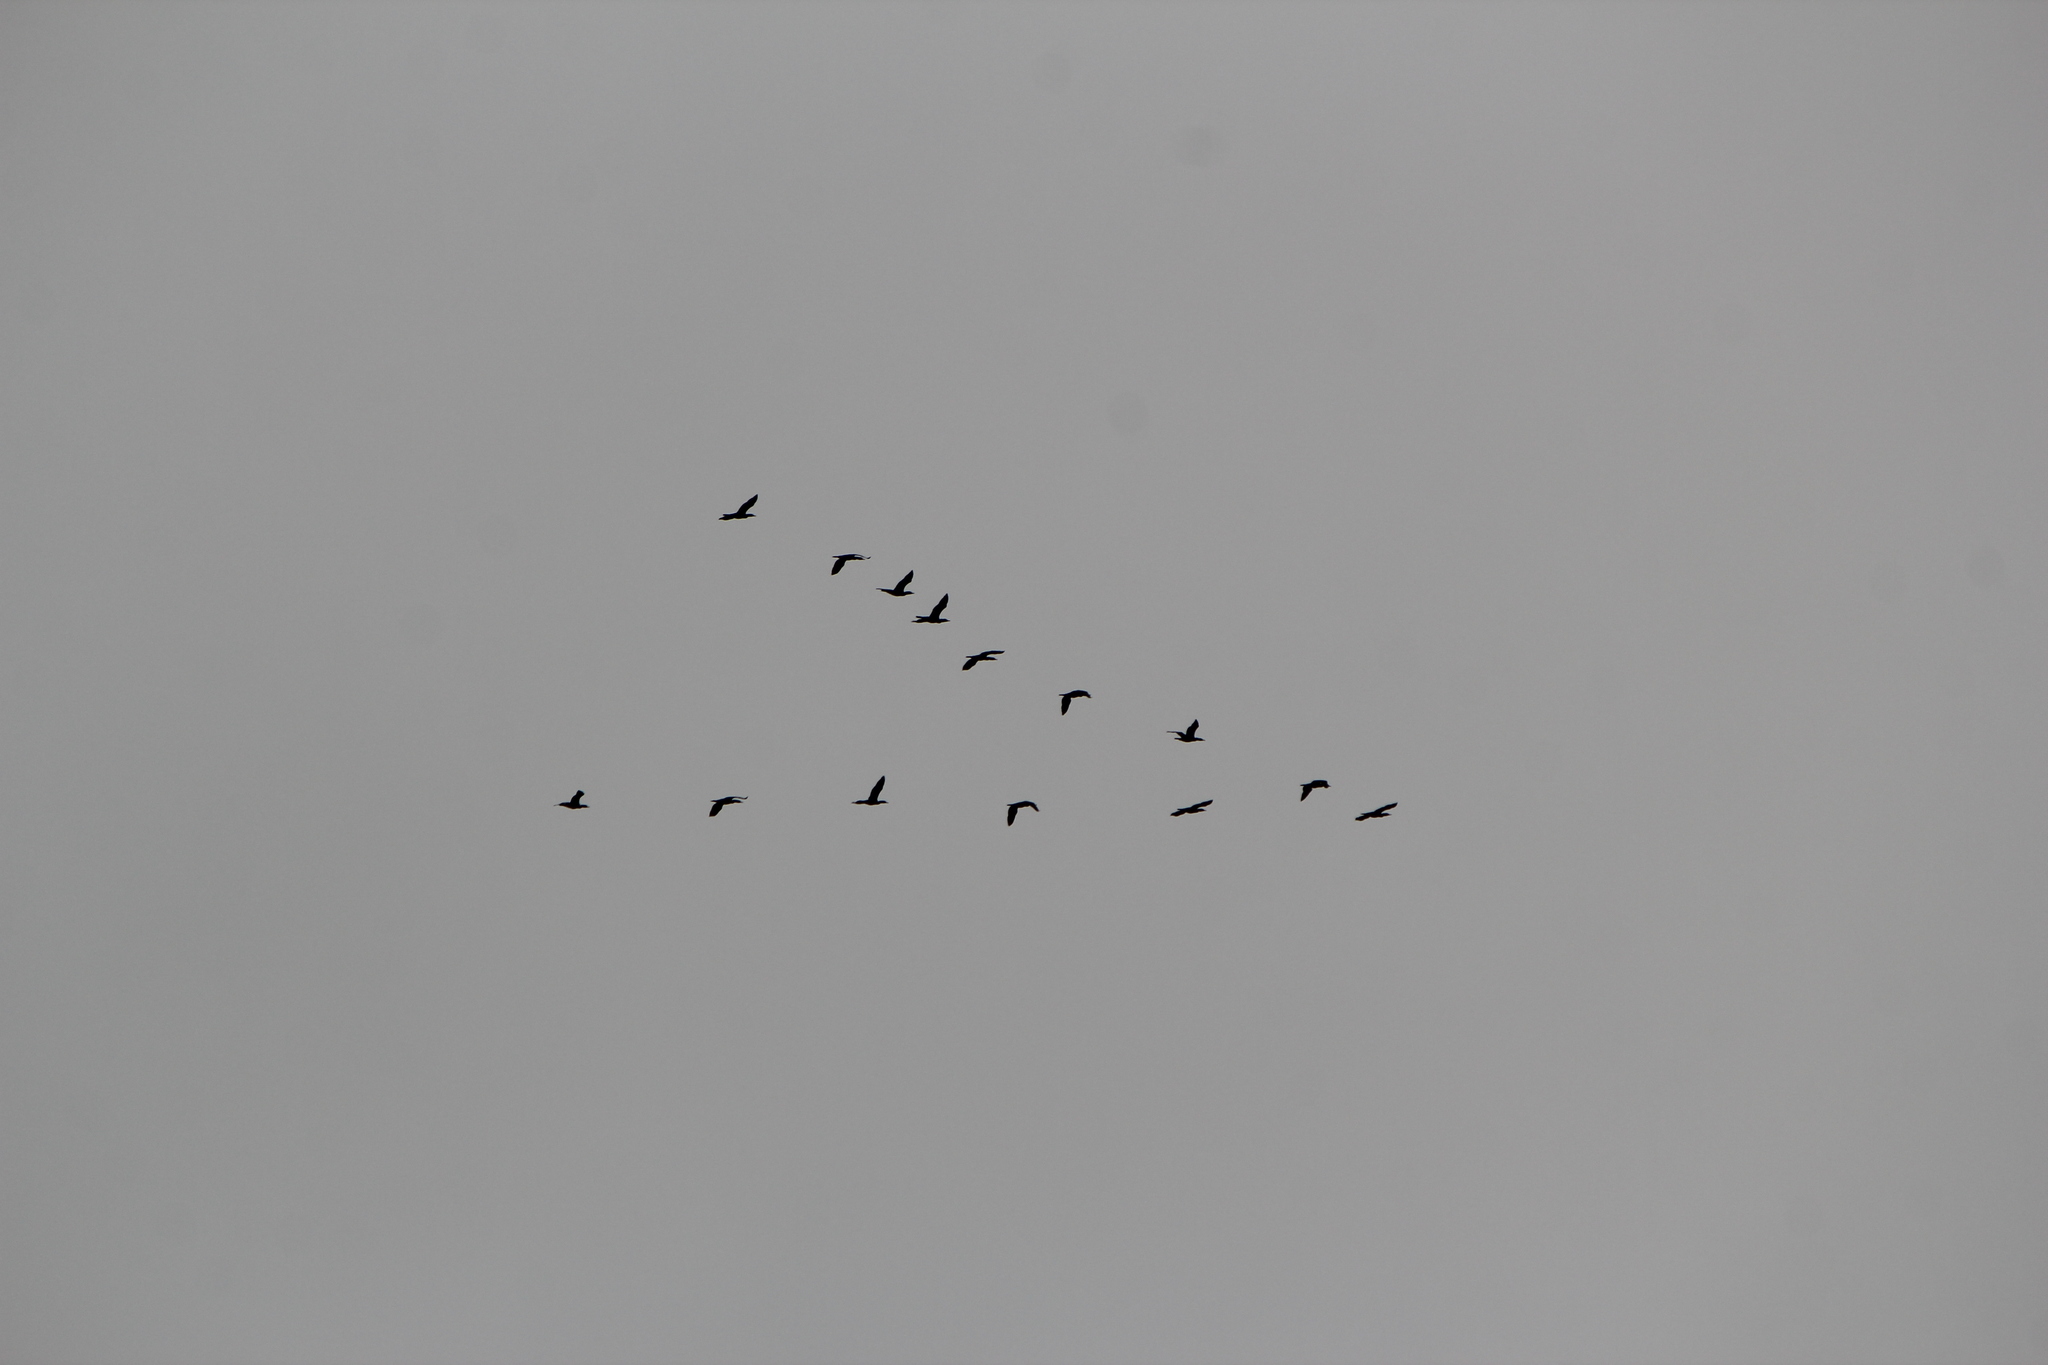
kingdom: Animalia
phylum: Chordata
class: Aves
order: Suliformes
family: Phalacrocoracidae
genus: Phalacrocorax
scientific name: Phalacrocorax auritus
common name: Double-crested cormorant
